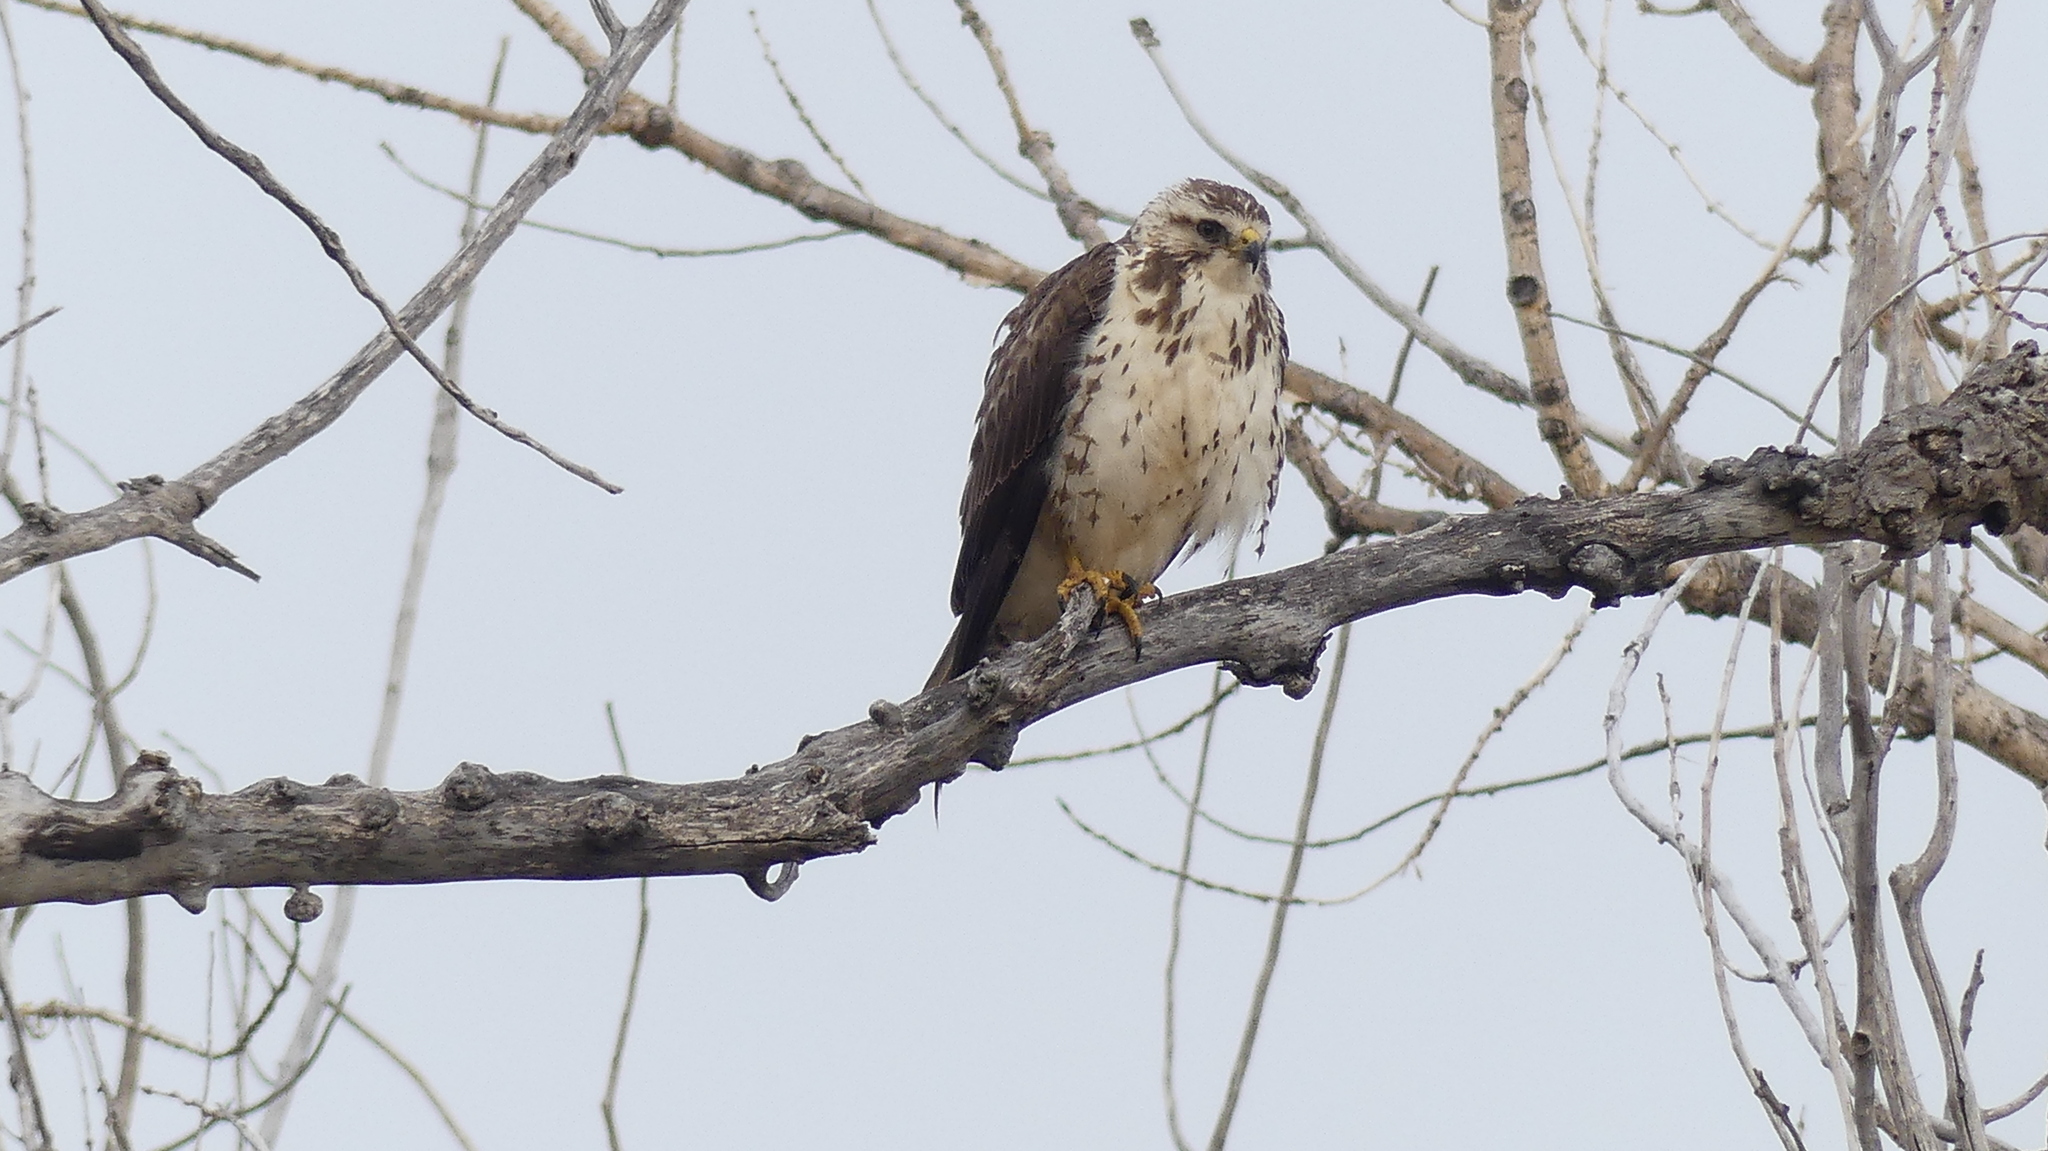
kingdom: Animalia
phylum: Chordata
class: Aves
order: Accipitriformes
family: Accipitridae
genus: Buteo
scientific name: Buteo swainsoni
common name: Swainson's hawk
